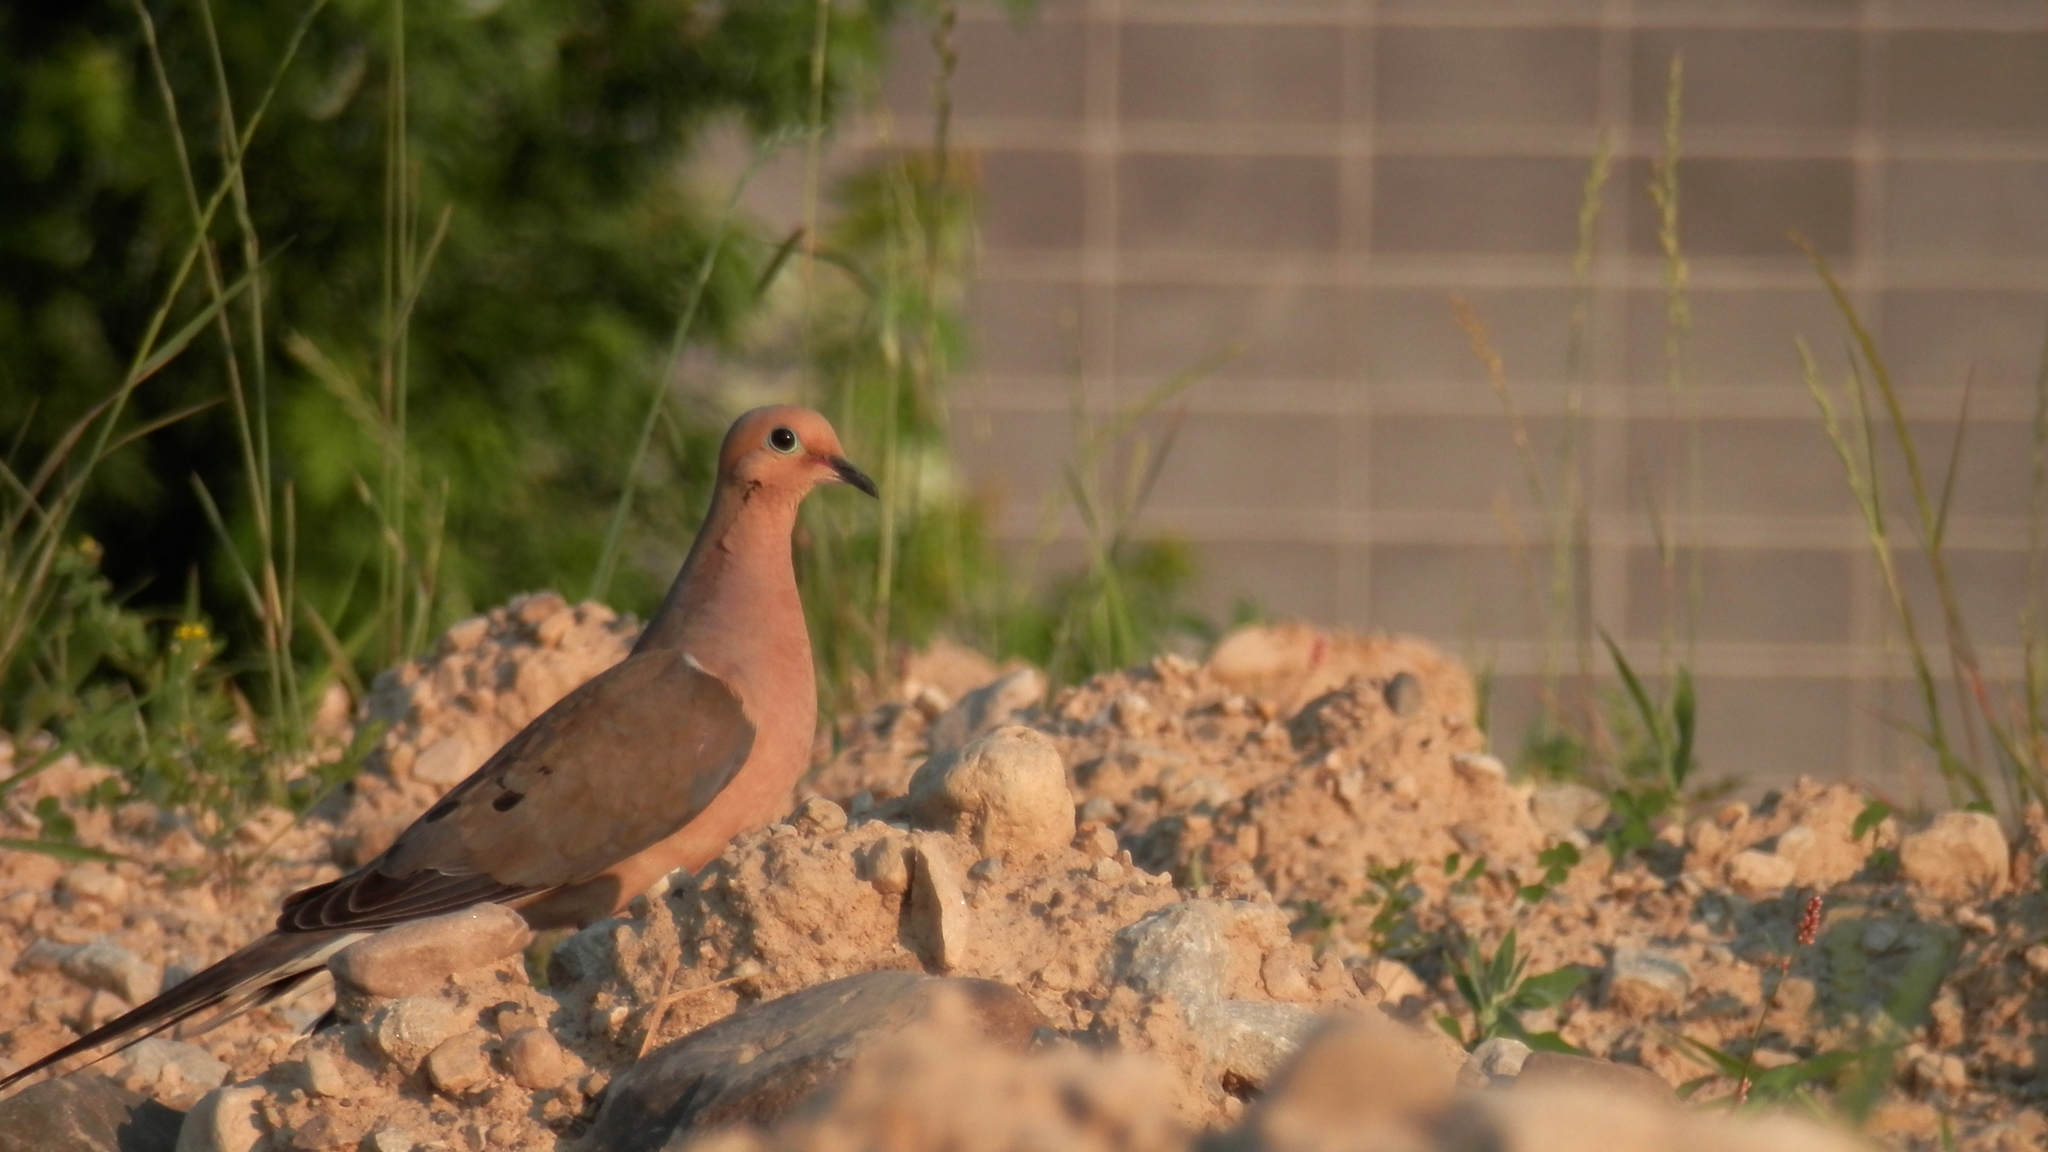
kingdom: Animalia
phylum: Chordata
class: Aves
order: Columbiformes
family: Columbidae
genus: Zenaida
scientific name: Zenaida macroura
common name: Mourning dove
